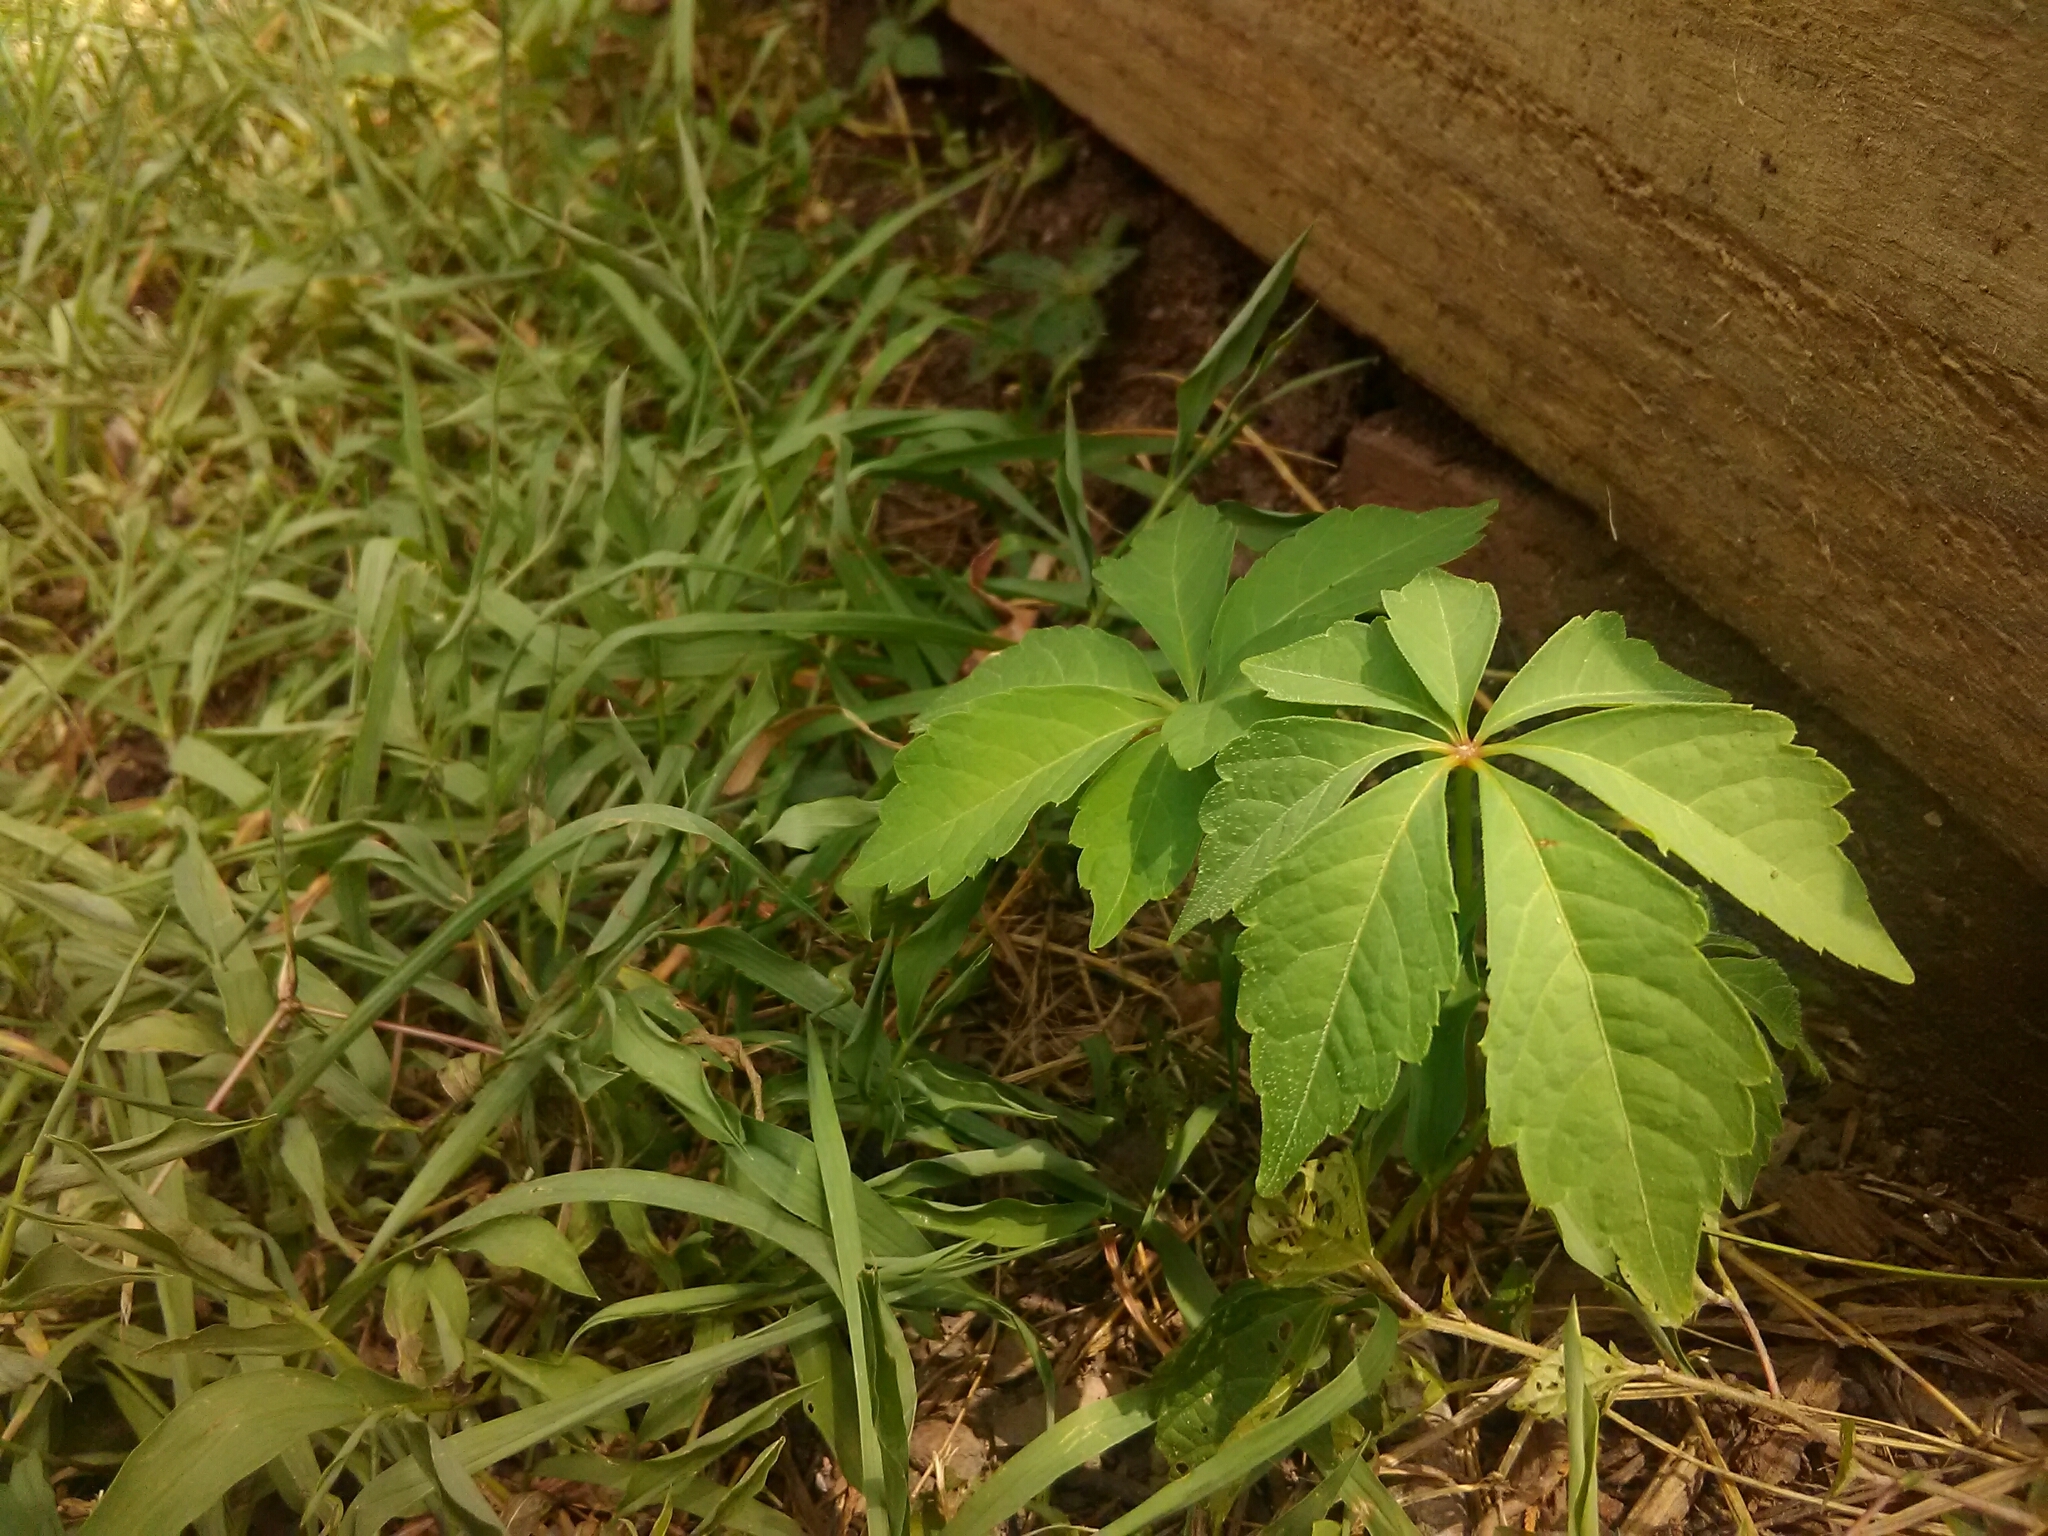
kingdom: Plantae
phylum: Tracheophyta
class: Magnoliopsida
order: Vitales
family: Vitaceae
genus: Parthenocissus
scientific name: Parthenocissus quinquefolia
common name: Virginia-creeper
